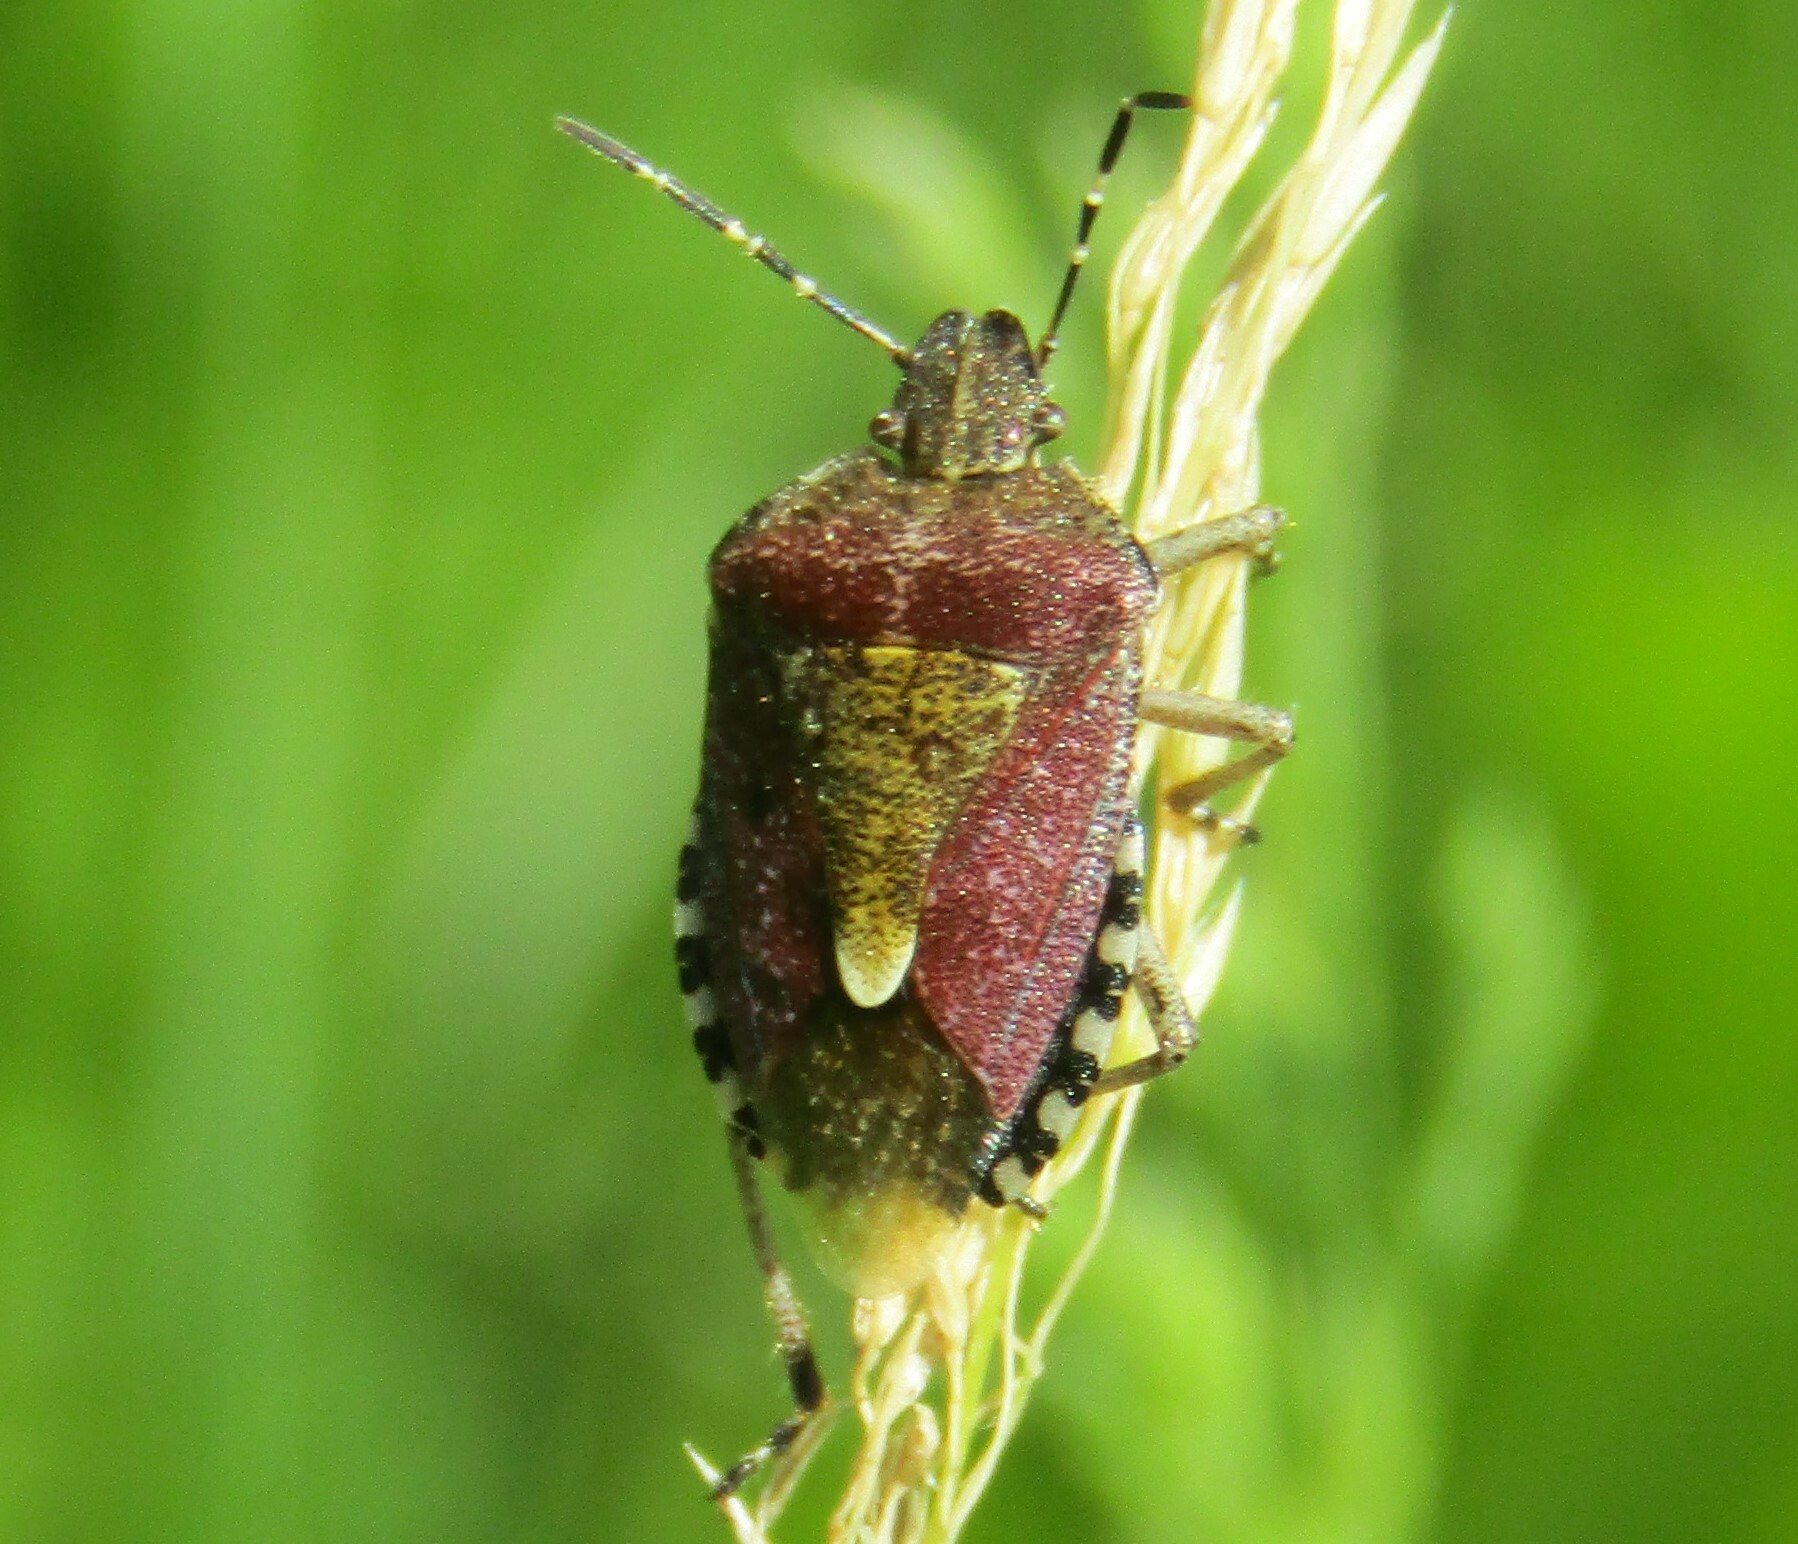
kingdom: Animalia
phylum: Arthropoda
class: Insecta
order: Hemiptera
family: Pentatomidae
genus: Dolycoris
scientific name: Dolycoris baccarum
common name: Sloe bug
